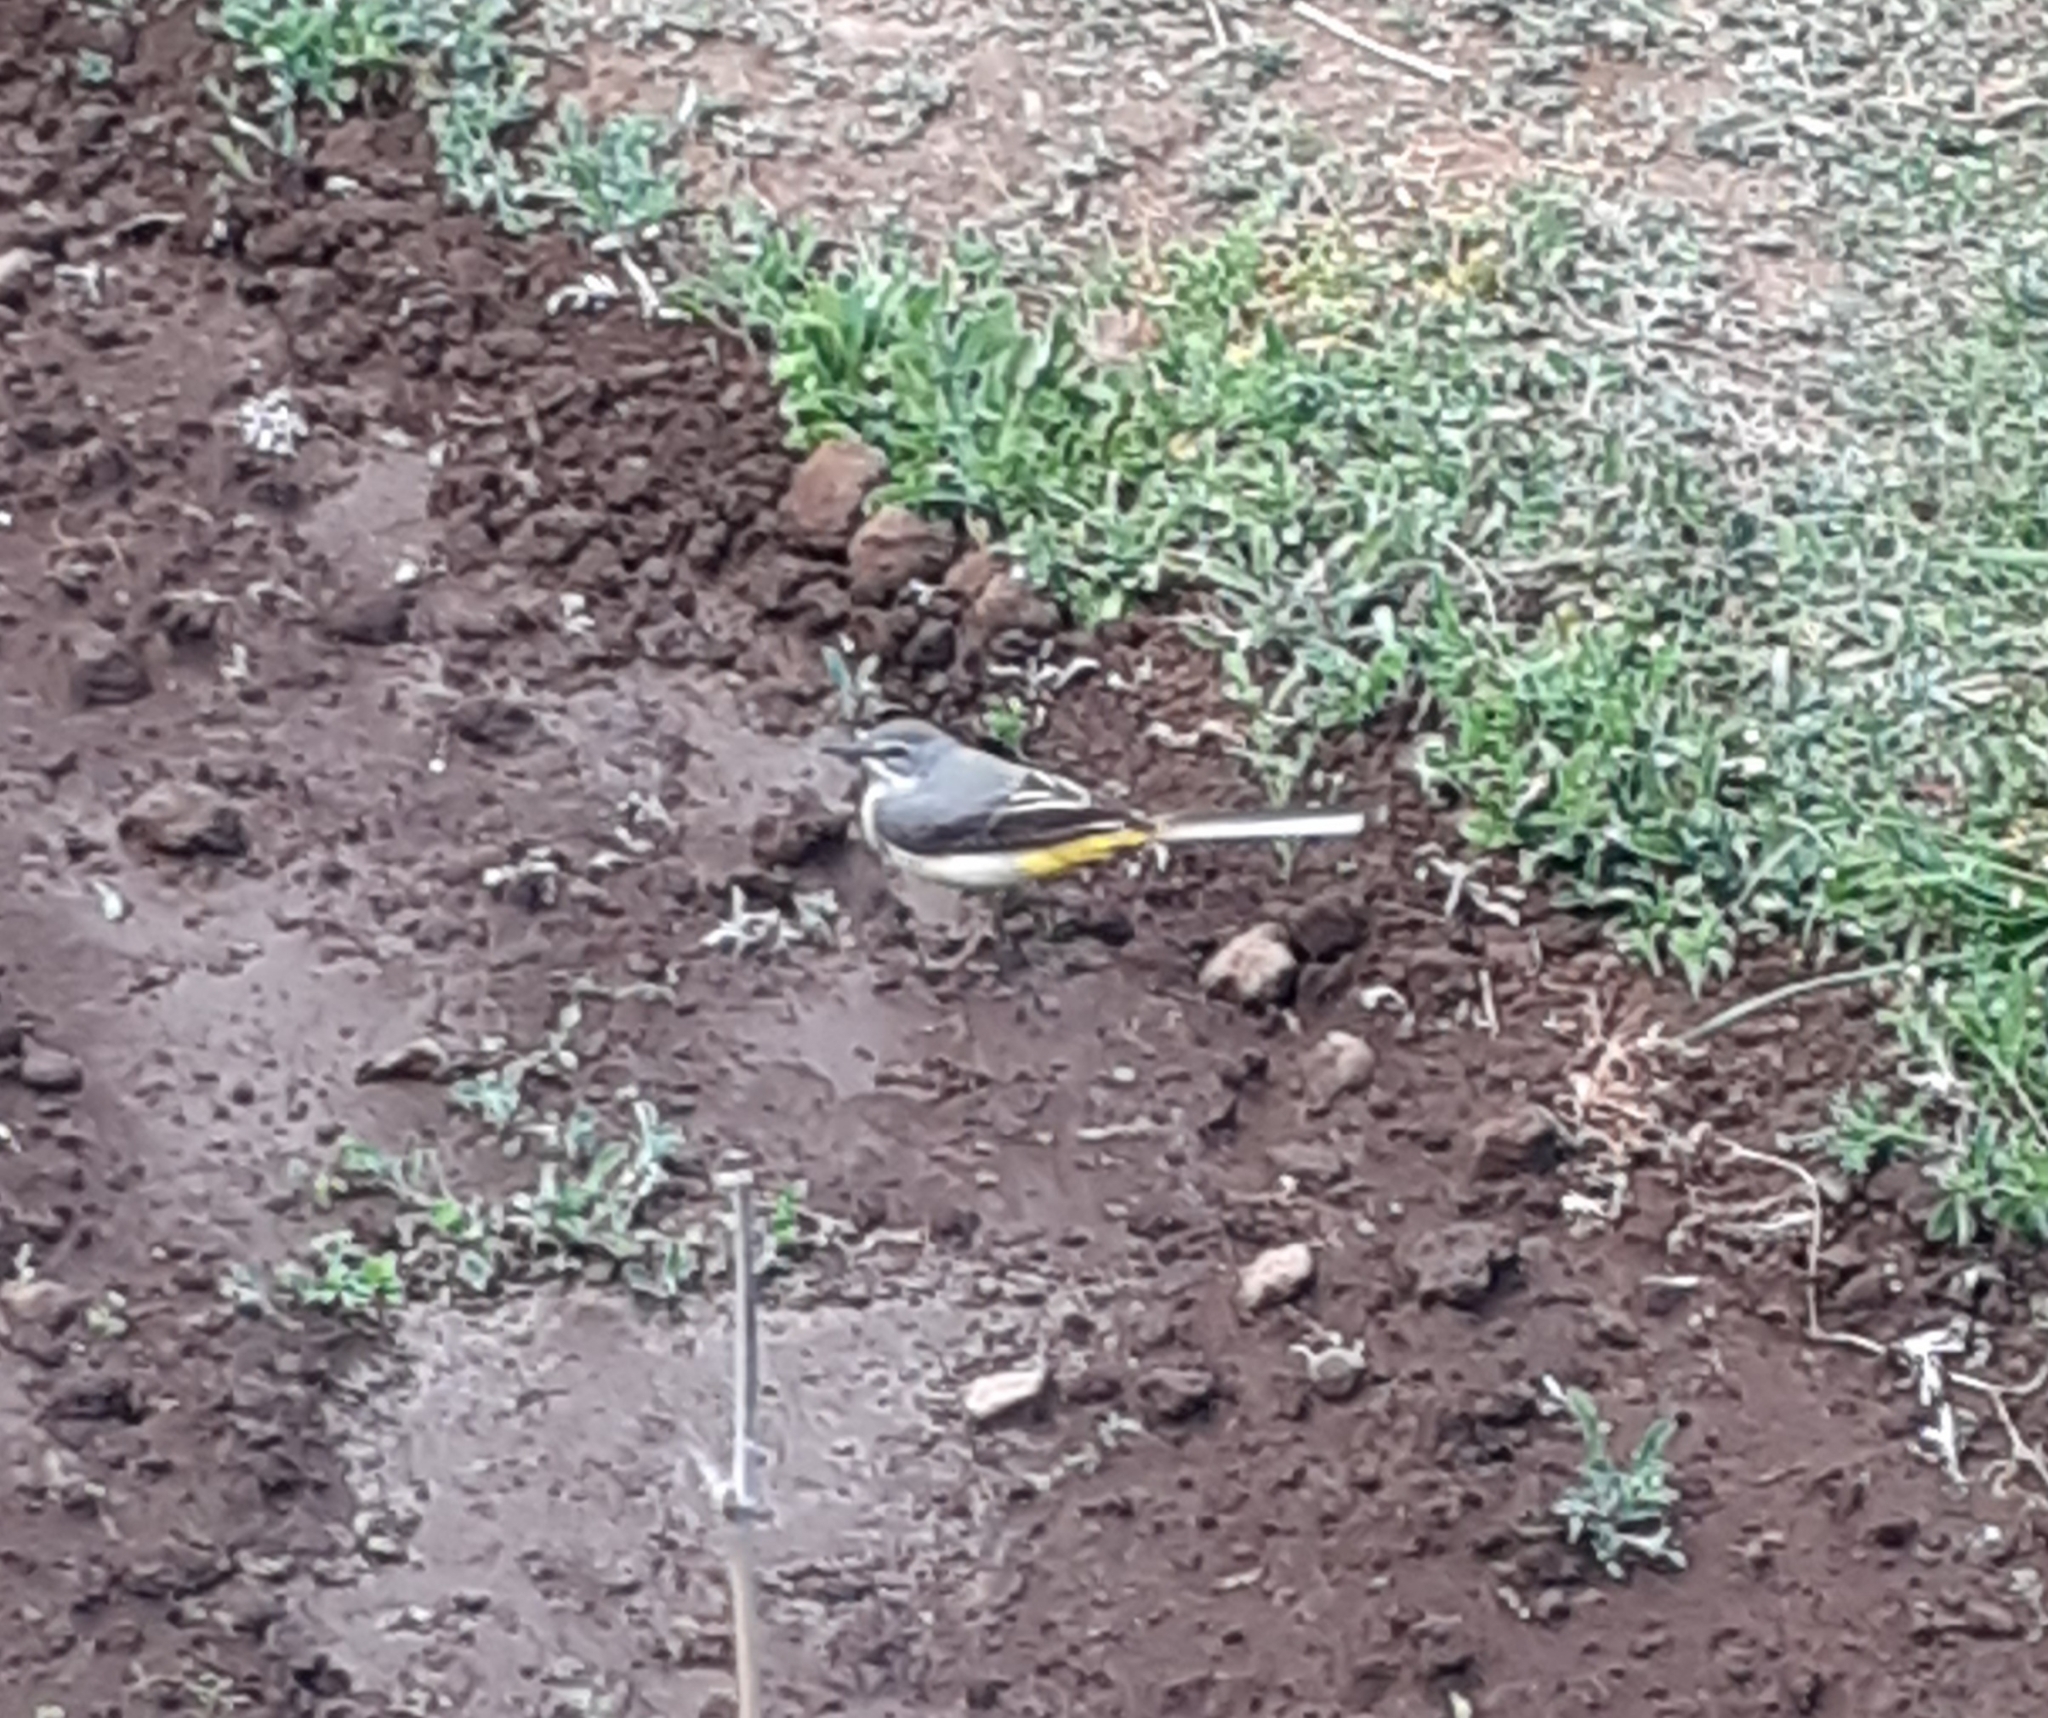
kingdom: Animalia
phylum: Chordata
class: Aves
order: Passeriformes
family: Motacillidae
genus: Motacilla
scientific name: Motacilla cinerea
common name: Grey wagtail
